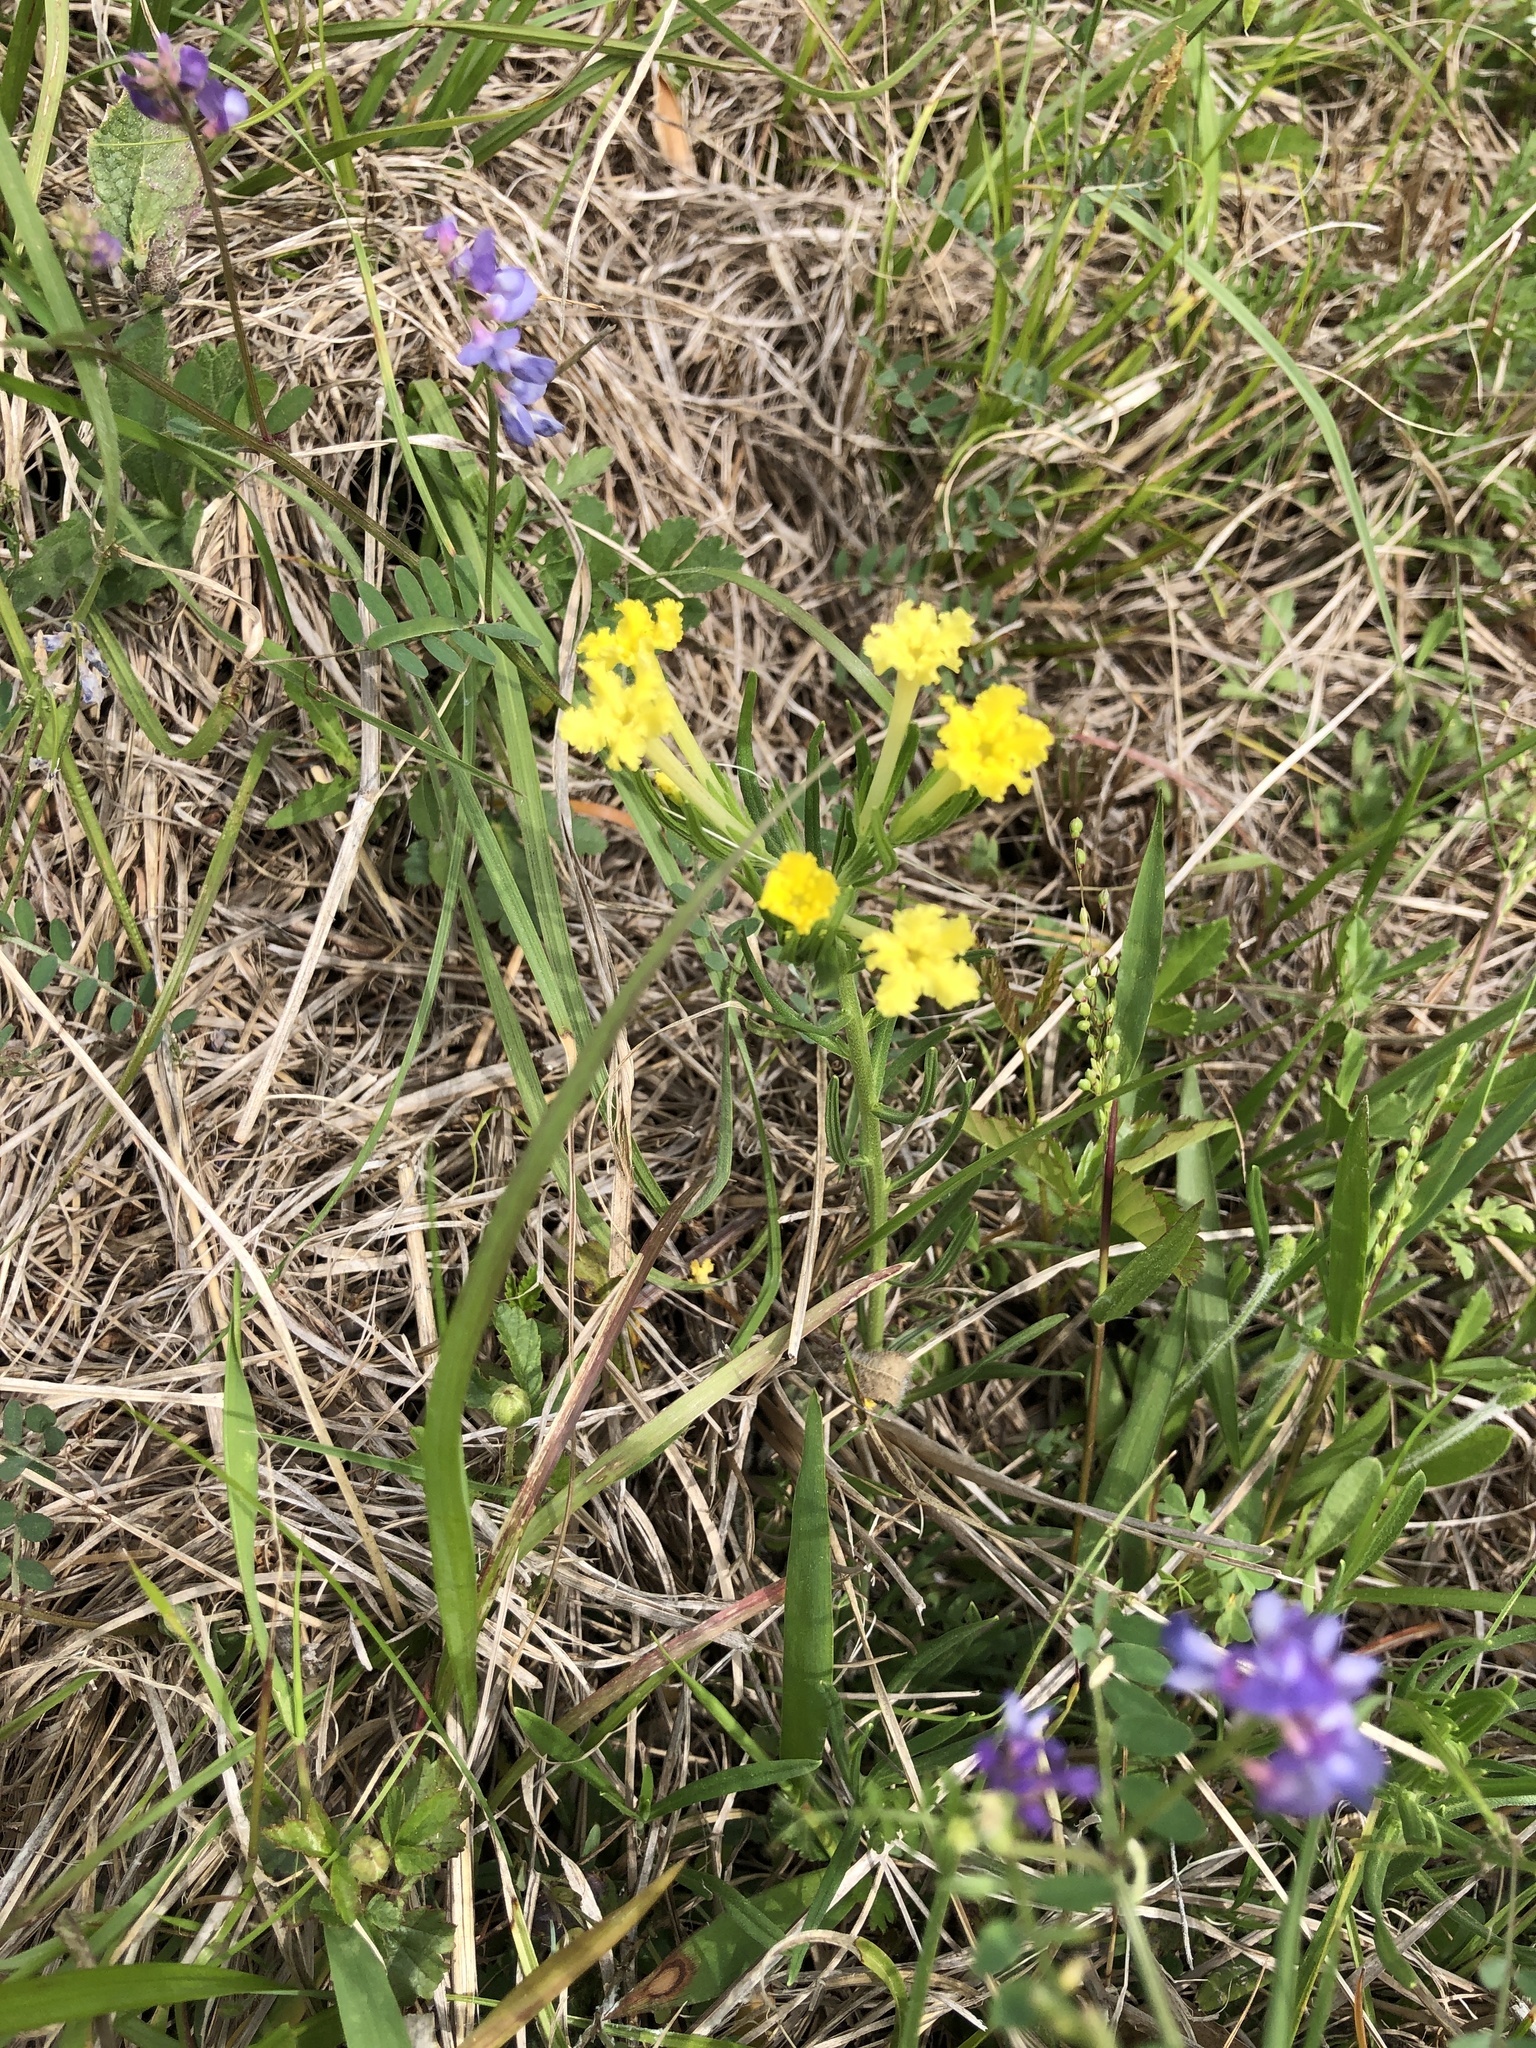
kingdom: Plantae
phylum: Tracheophyta
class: Magnoliopsida
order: Boraginales
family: Boraginaceae
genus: Lithospermum
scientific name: Lithospermum incisum
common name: Fringed gromwell
